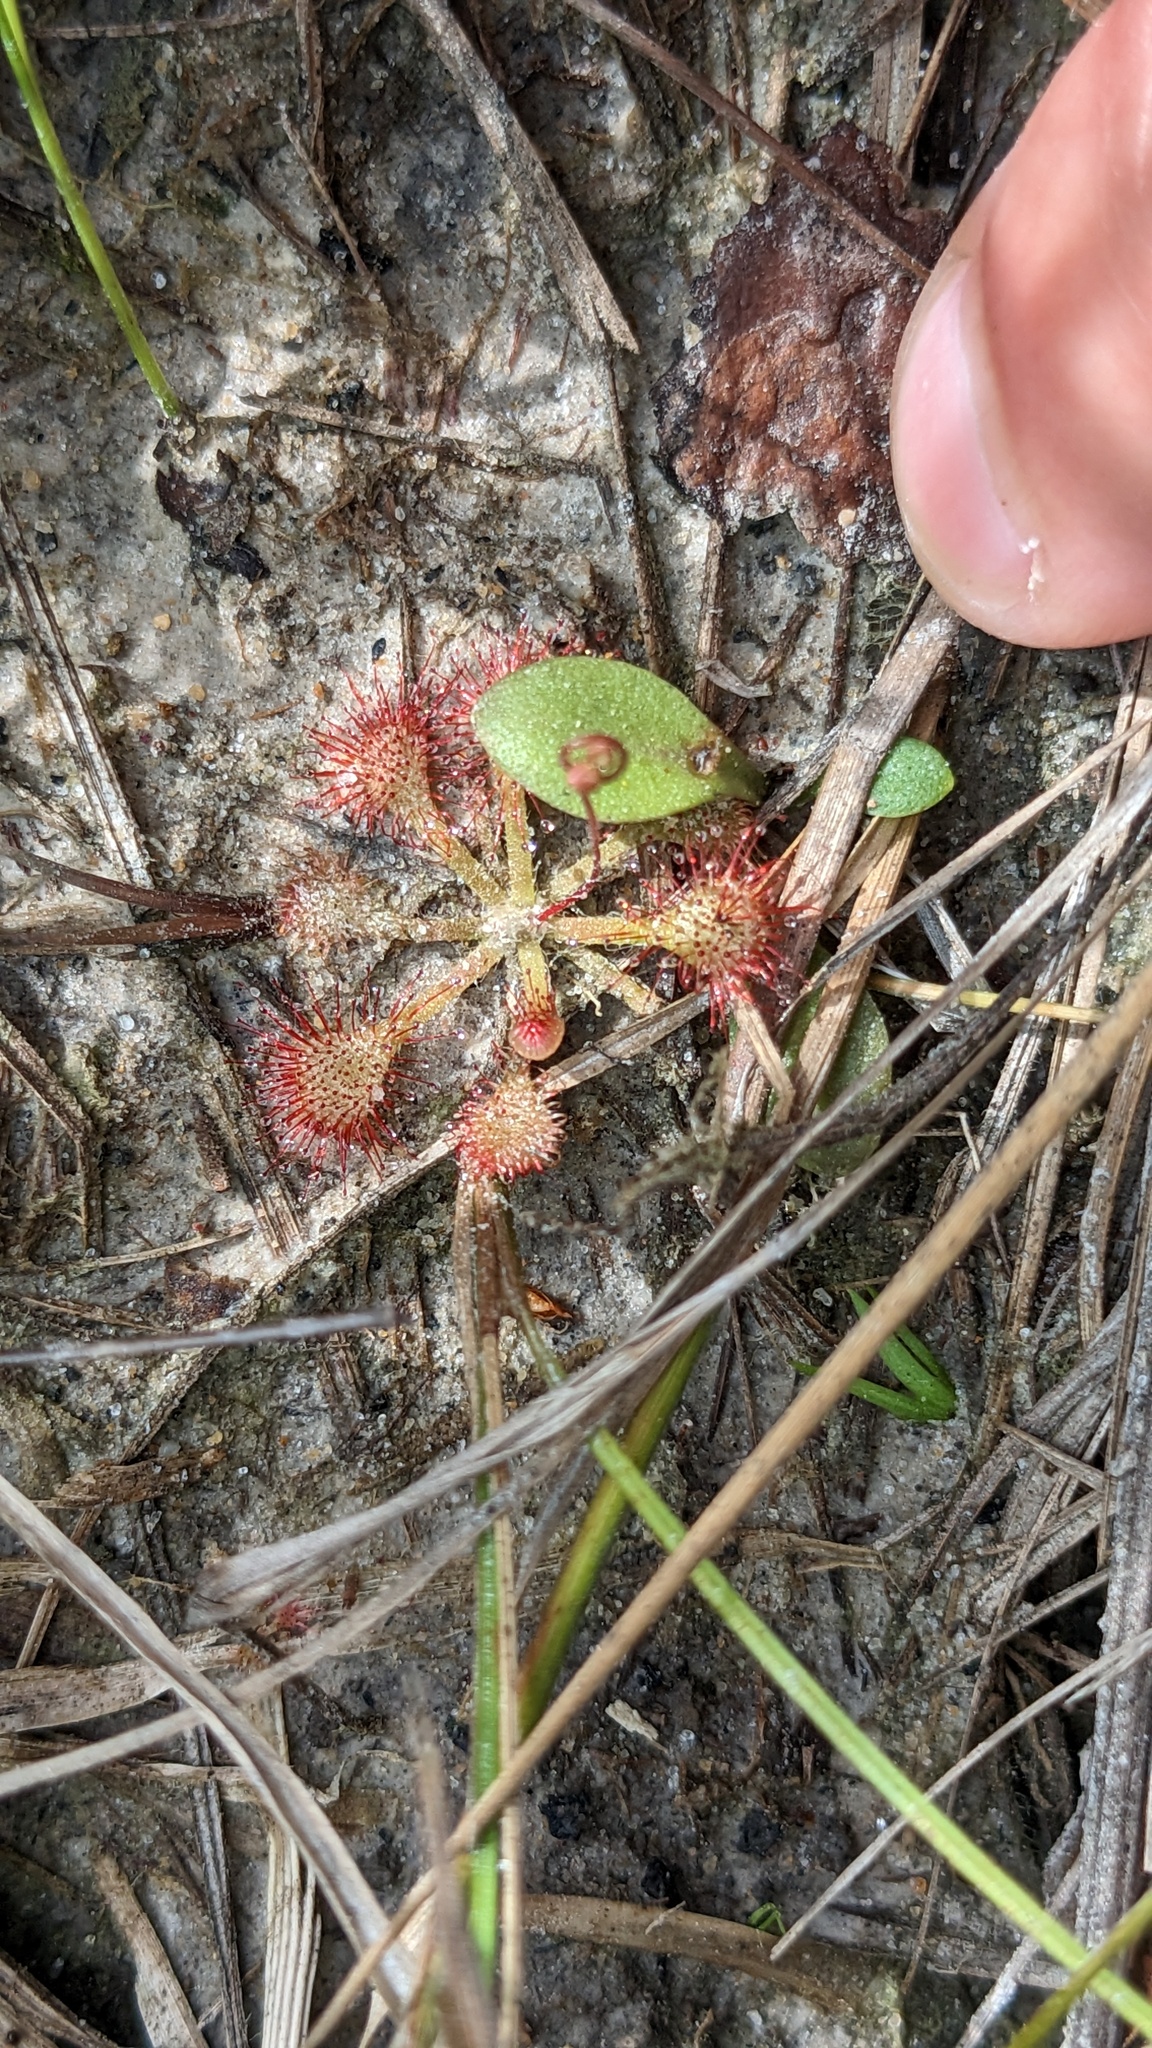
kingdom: Plantae
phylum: Tracheophyta
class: Magnoliopsida
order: Caryophyllales
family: Droseraceae
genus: Drosera
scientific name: Drosera capillaris
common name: Pink sundew
